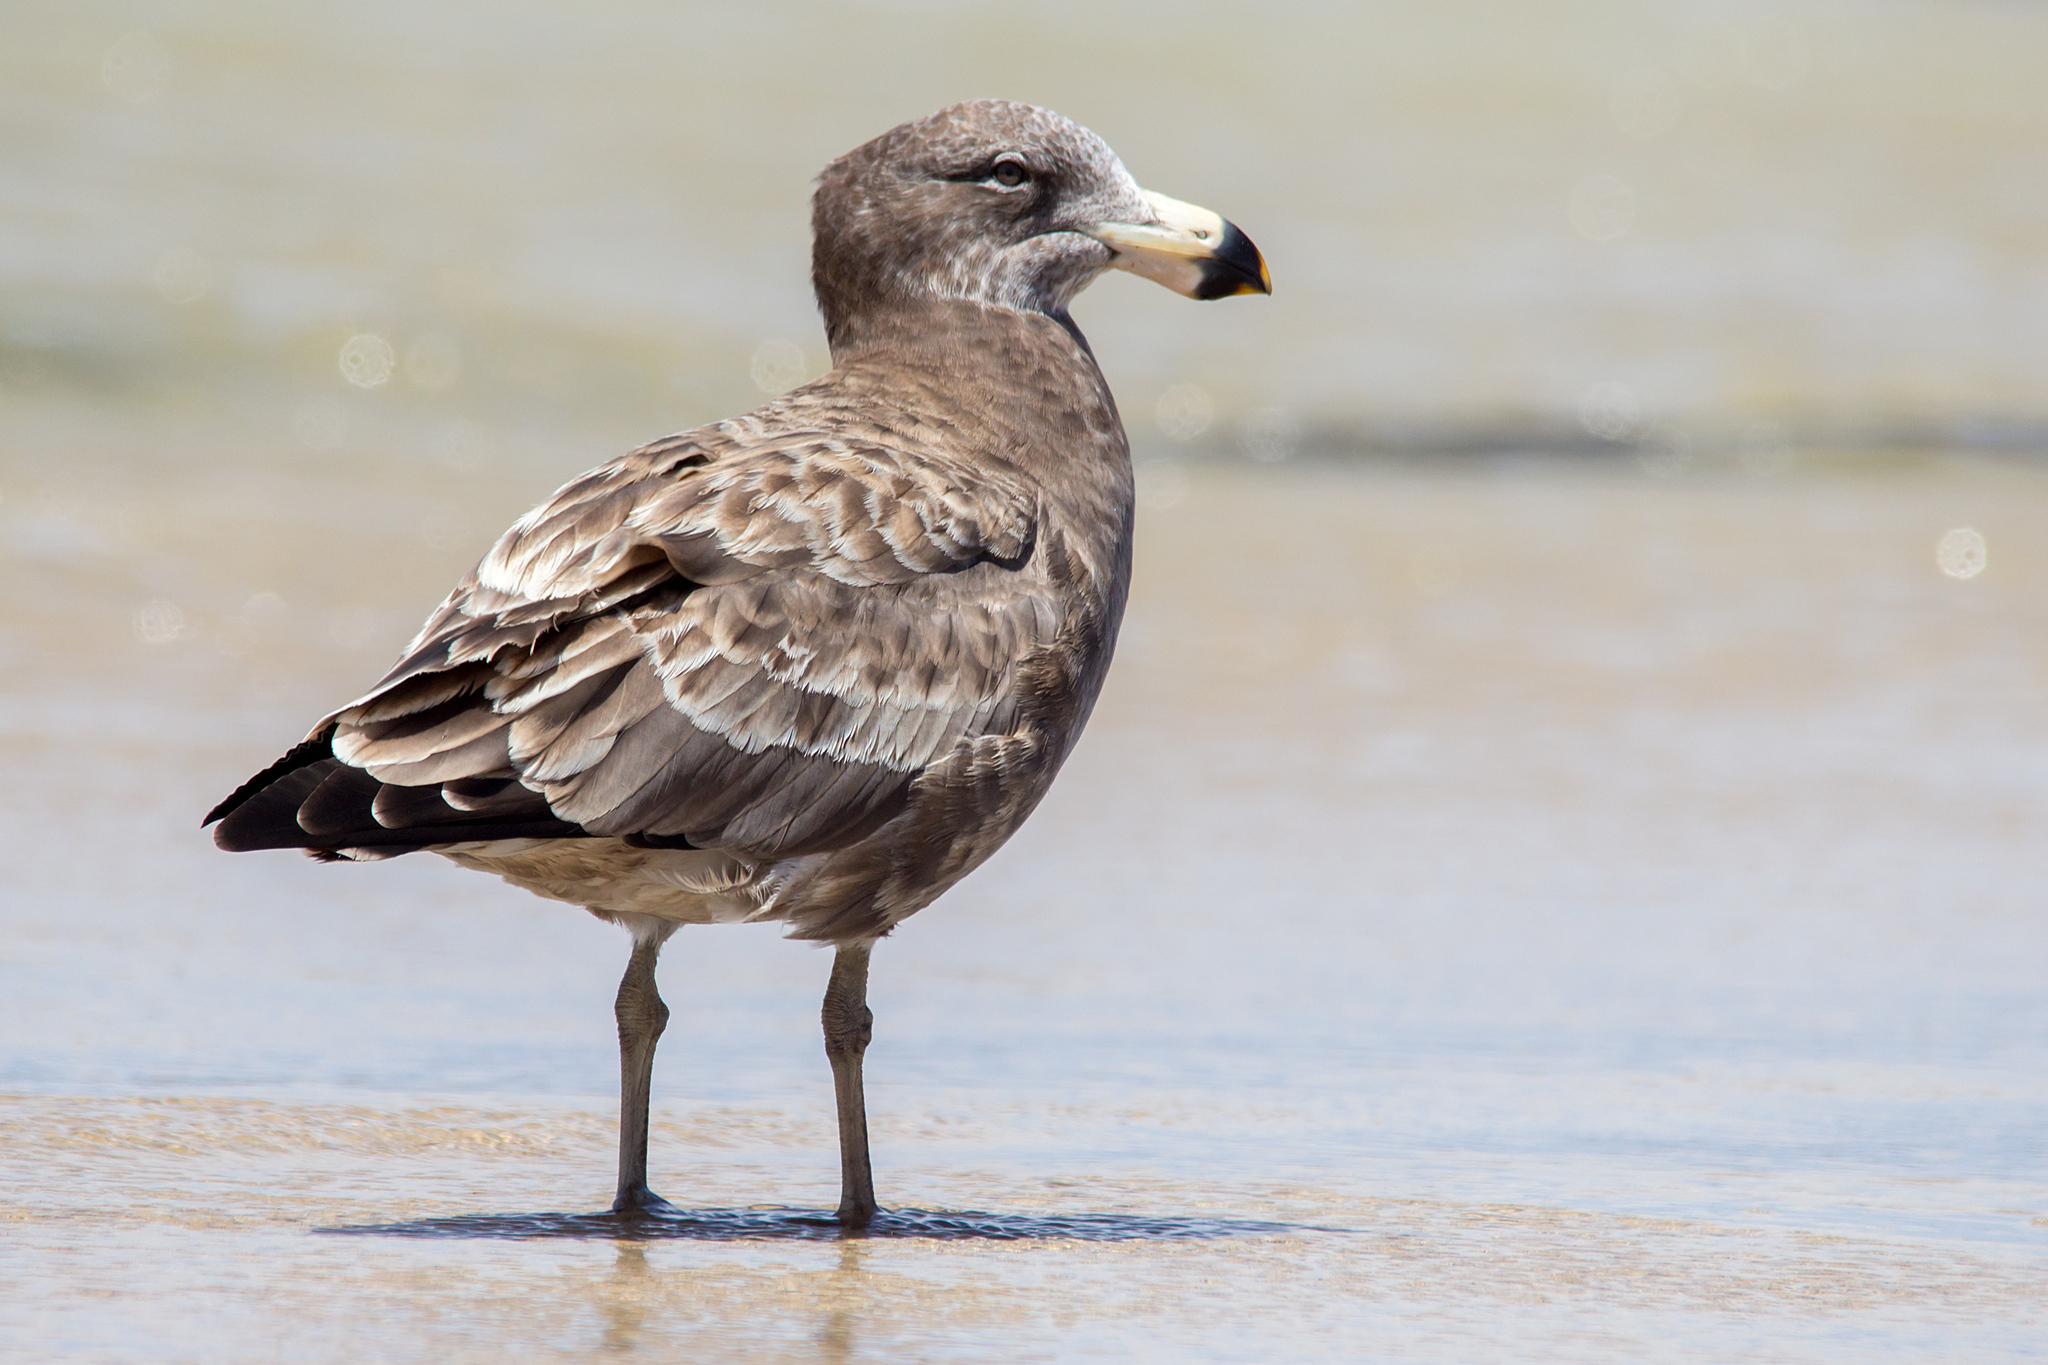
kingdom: Animalia
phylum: Chordata
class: Aves
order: Charadriiformes
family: Laridae
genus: Larus
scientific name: Larus pacificus
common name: Pacific gull
